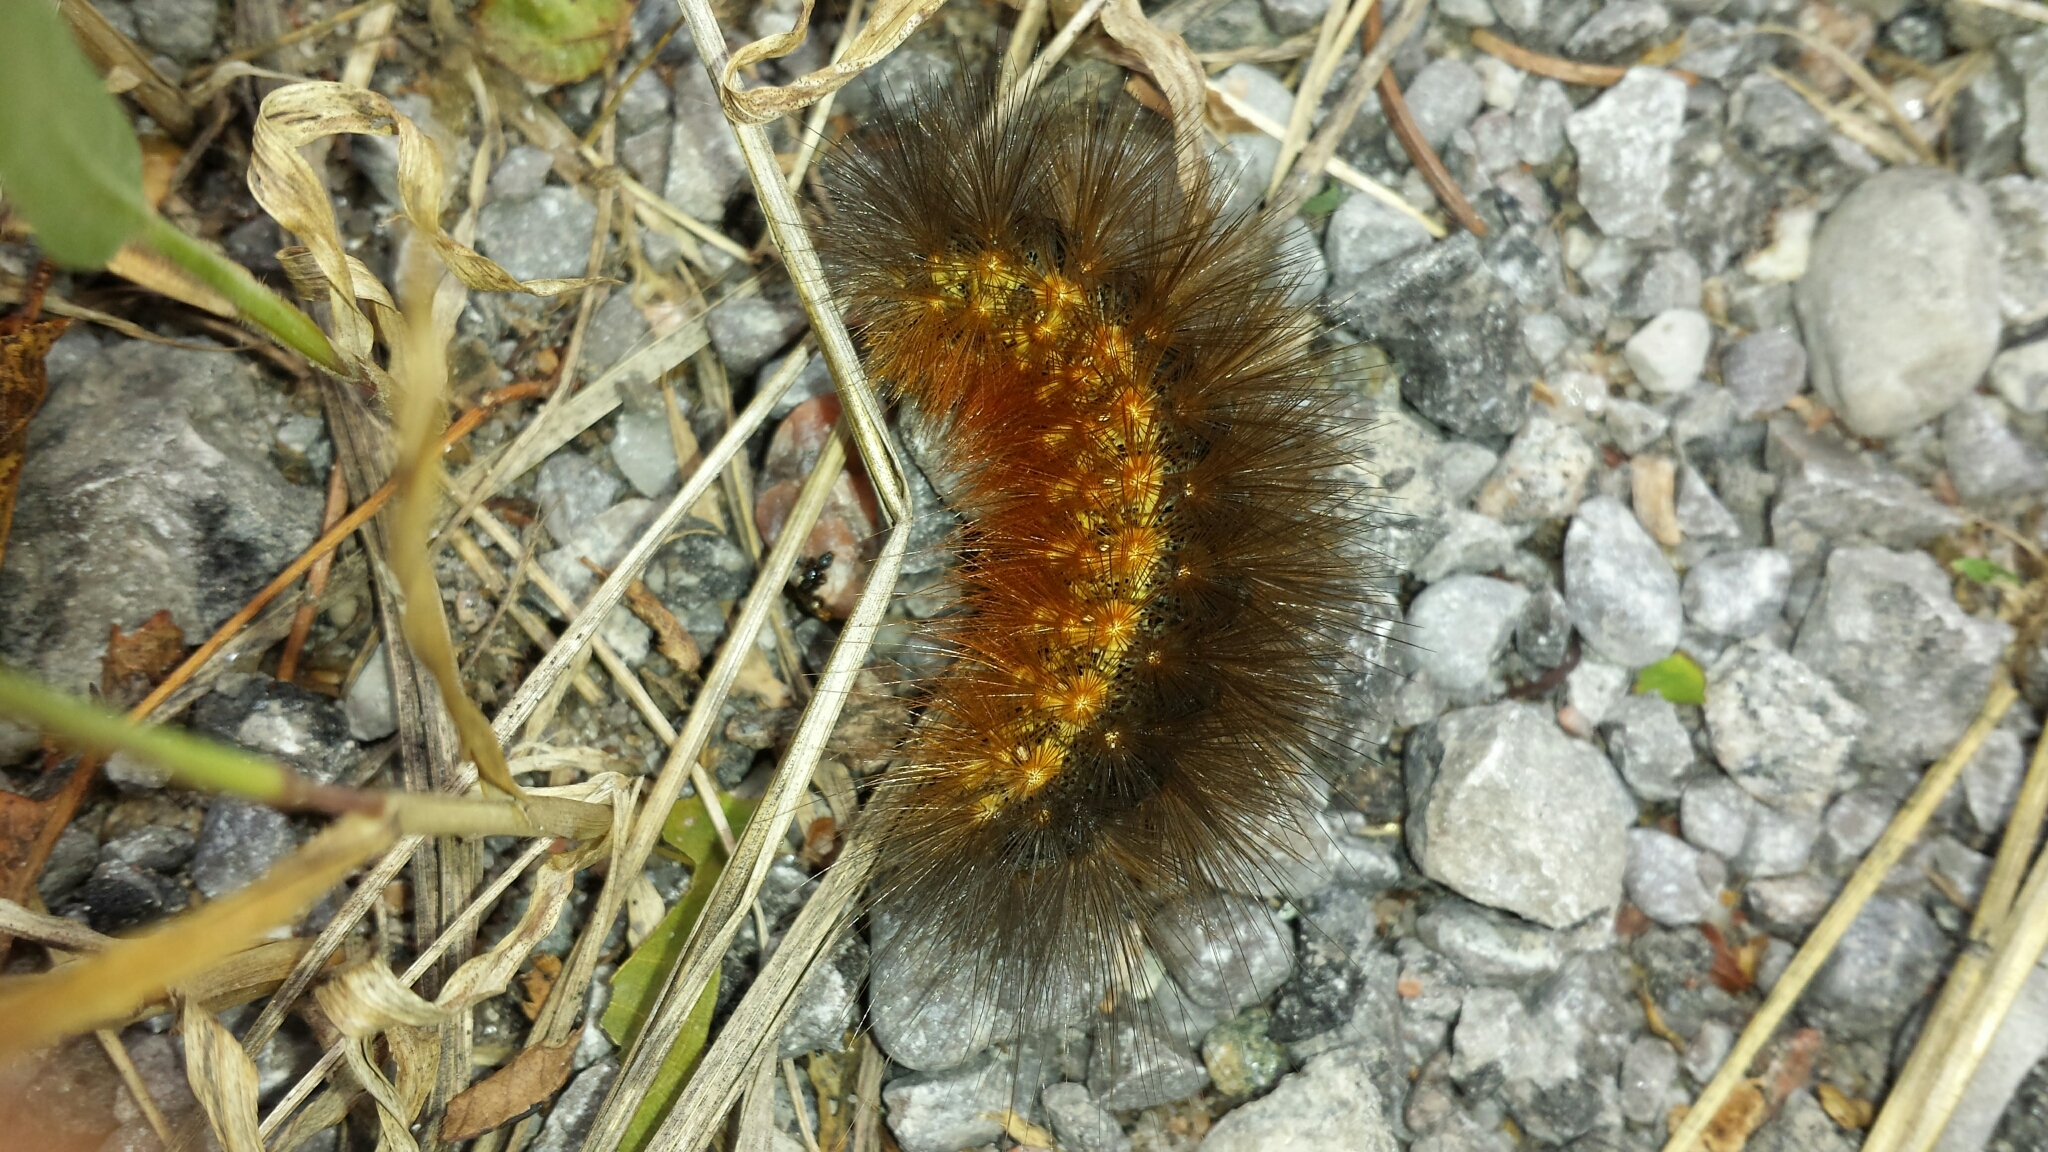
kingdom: Animalia
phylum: Arthropoda
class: Insecta
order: Lepidoptera
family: Erebidae
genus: Estigmene
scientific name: Estigmene acrea
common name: Salt marsh moth
